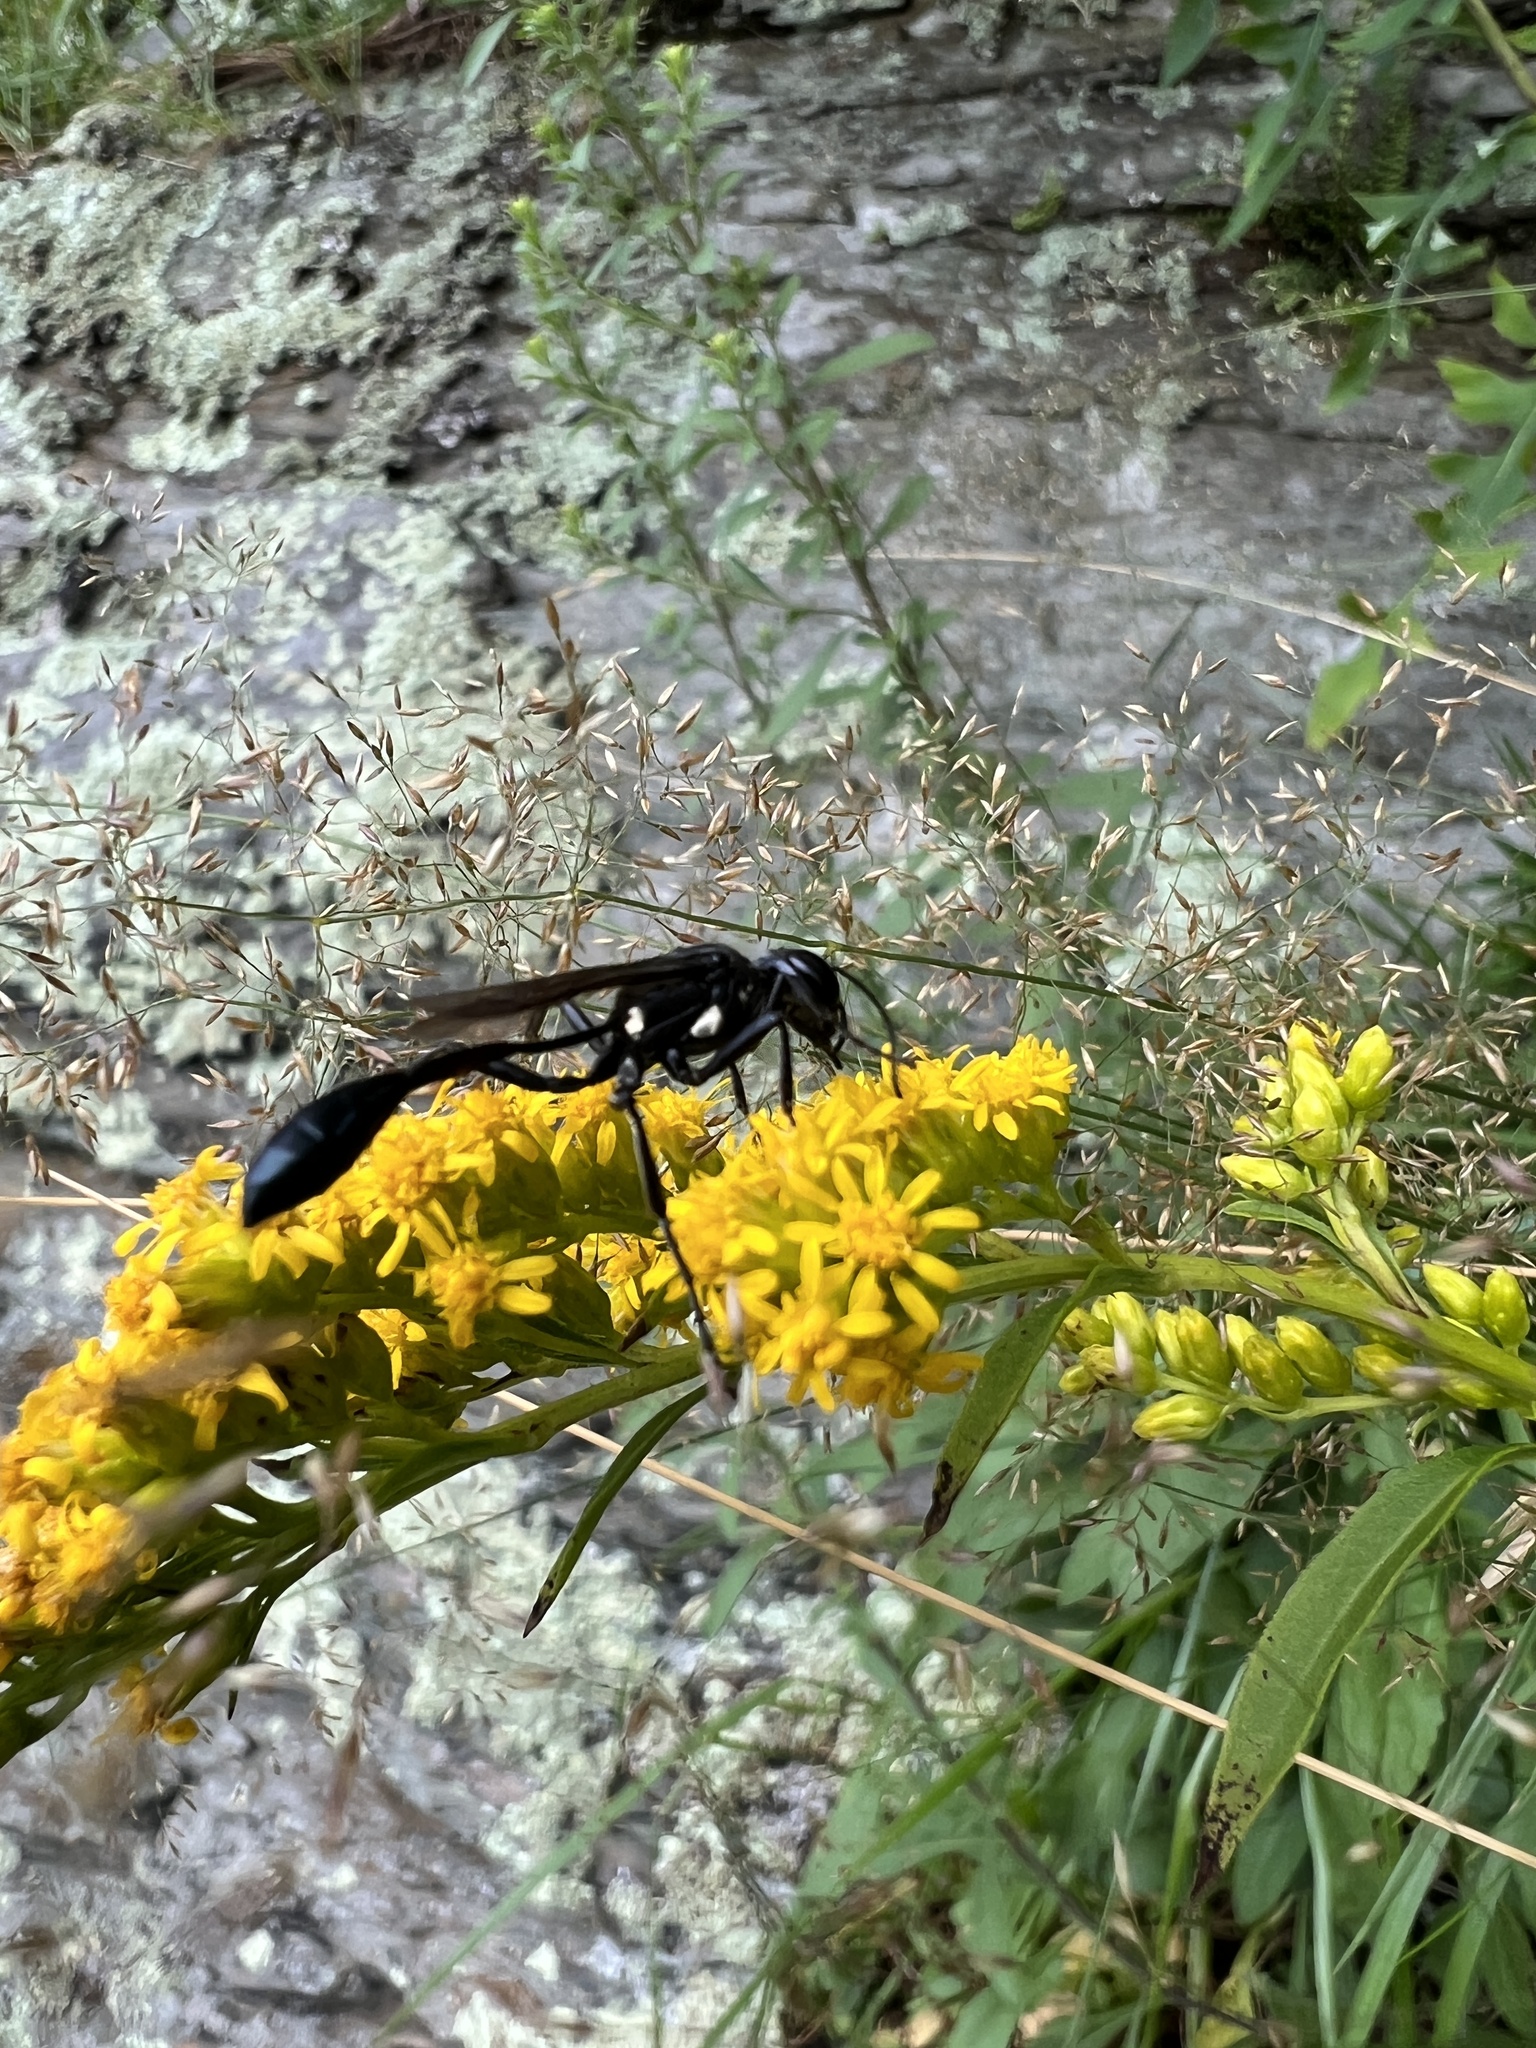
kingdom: Animalia
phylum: Arthropoda
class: Insecta
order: Hymenoptera
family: Sphecidae
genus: Eremnophila
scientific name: Eremnophila aureonotata
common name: Gold-marked thread-waisted wasp
